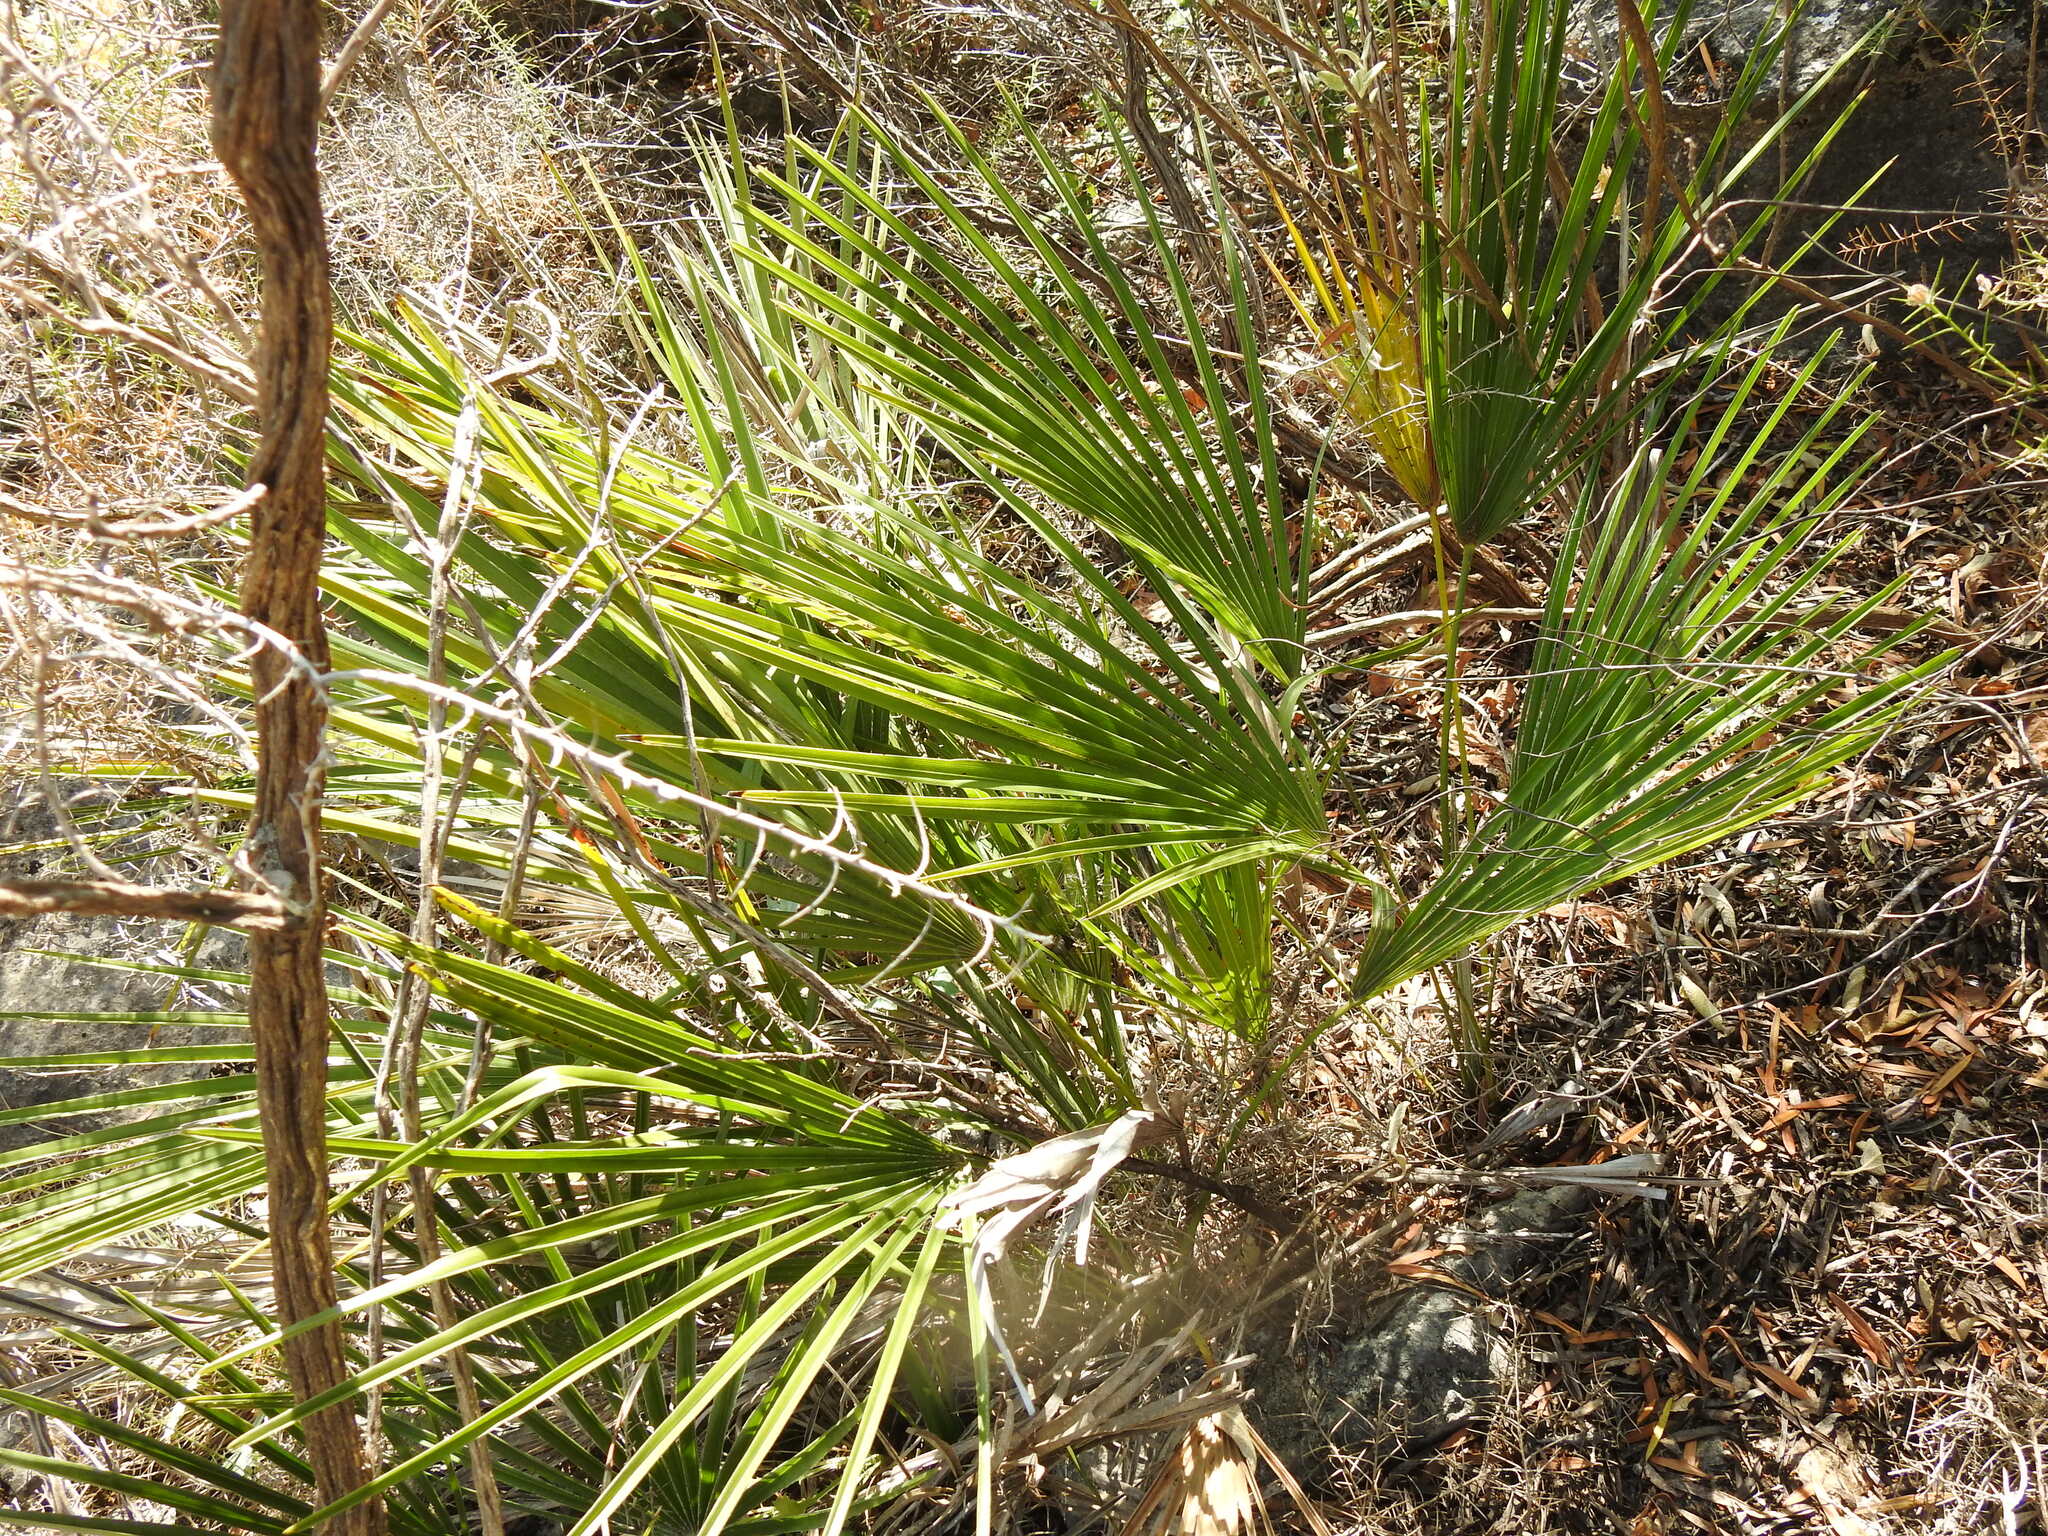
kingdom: Plantae
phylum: Tracheophyta
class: Liliopsida
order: Arecales
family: Arecaceae
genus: Chamaerops
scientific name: Chamaerops humilis
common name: Dwarf fan palm
